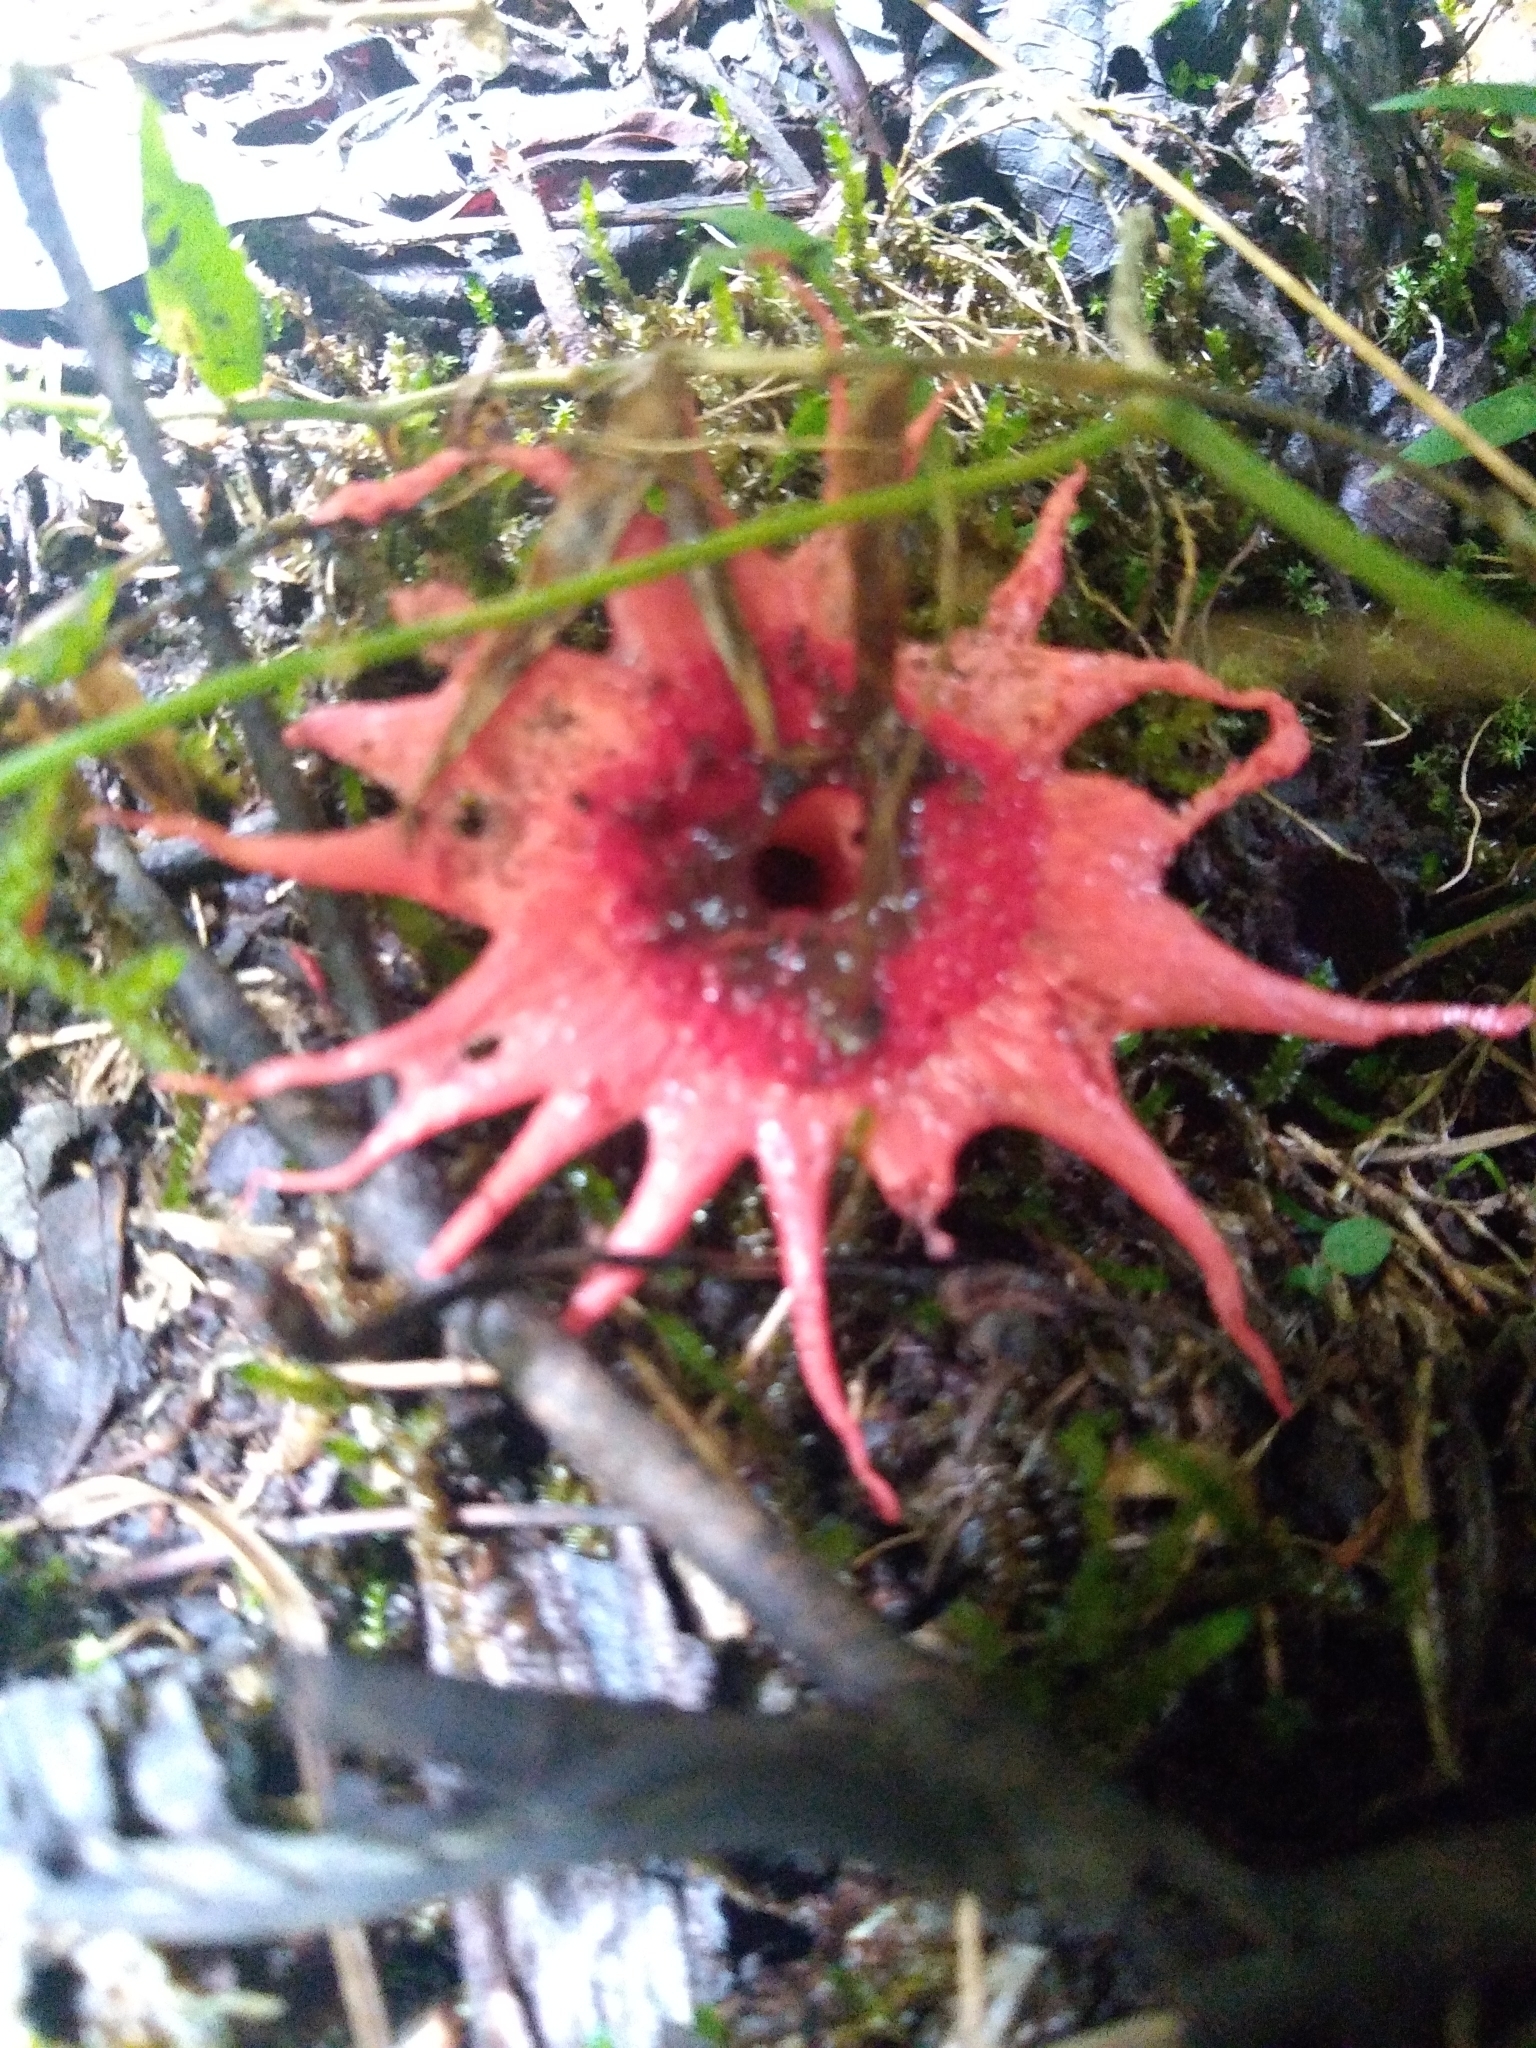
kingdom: Fungi
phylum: Basidiomycota
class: Agaricomycetes
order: Phallales
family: Phallaceae
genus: Aseroe
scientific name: Aseroe rubra
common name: Starfish fungus
